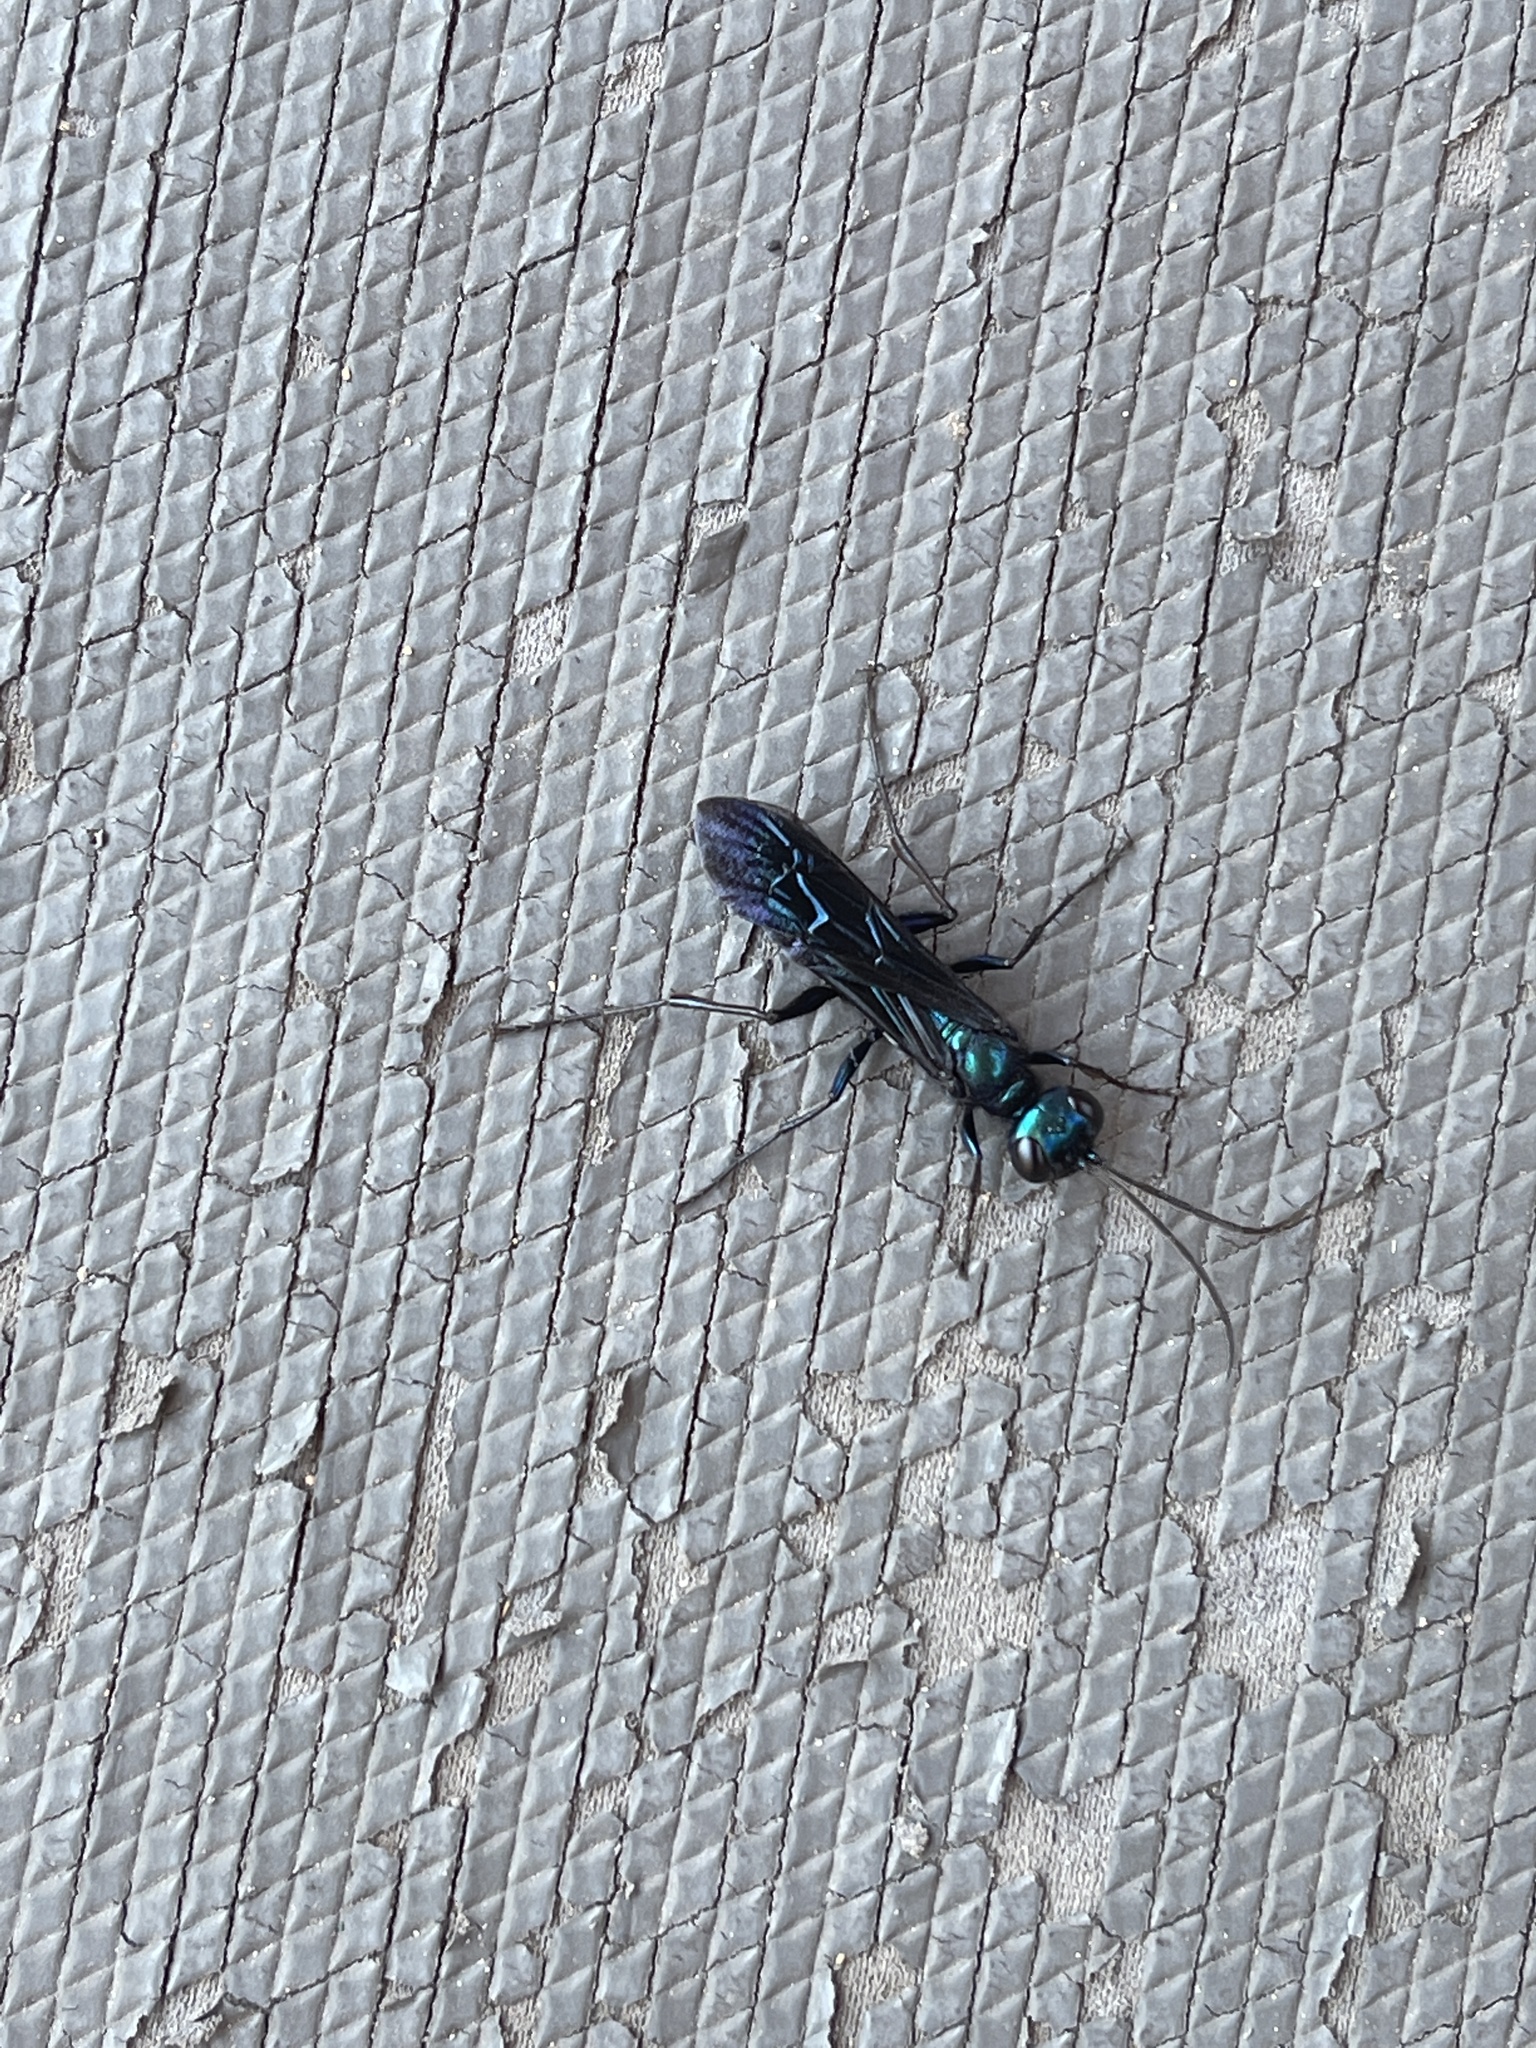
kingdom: Animalia
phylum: Arthropoda
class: Insecta
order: Hymenoptera
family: Sphecidae
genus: Chlorion
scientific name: Chlorion aerarium
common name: Steel-blue cricket hunter
